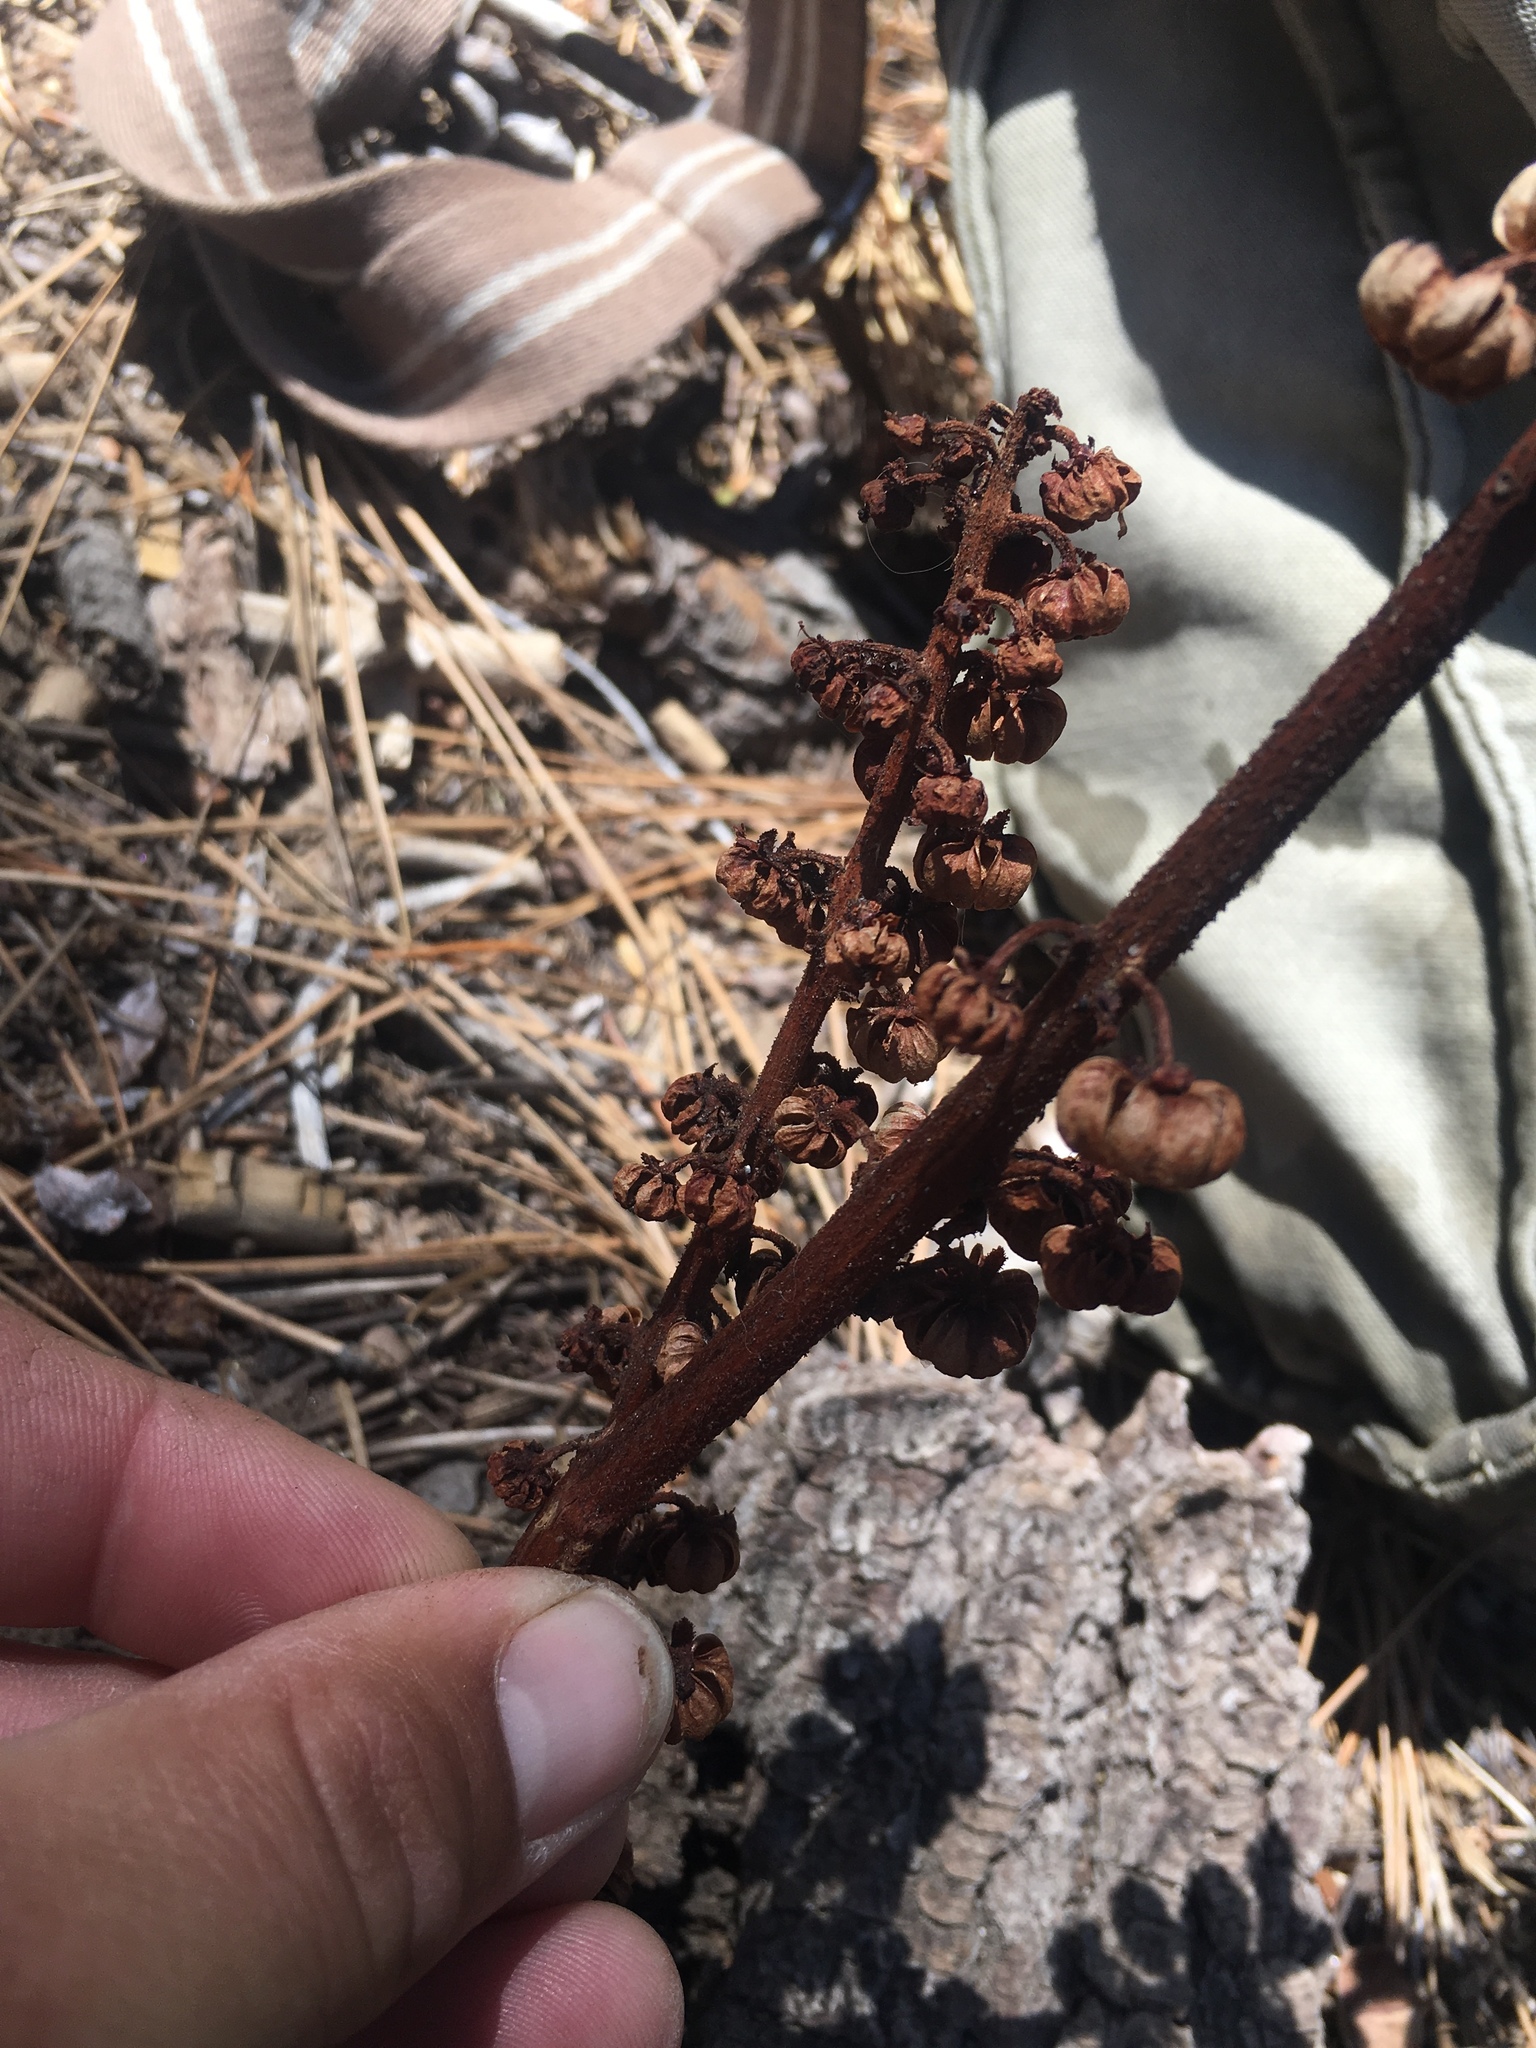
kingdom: Plantae
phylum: Tracheophyta
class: Magnoliopsida
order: Ericales
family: Ericaceae
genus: Pterospora
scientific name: Pterospora andromedea
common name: Giant bird's-nest
